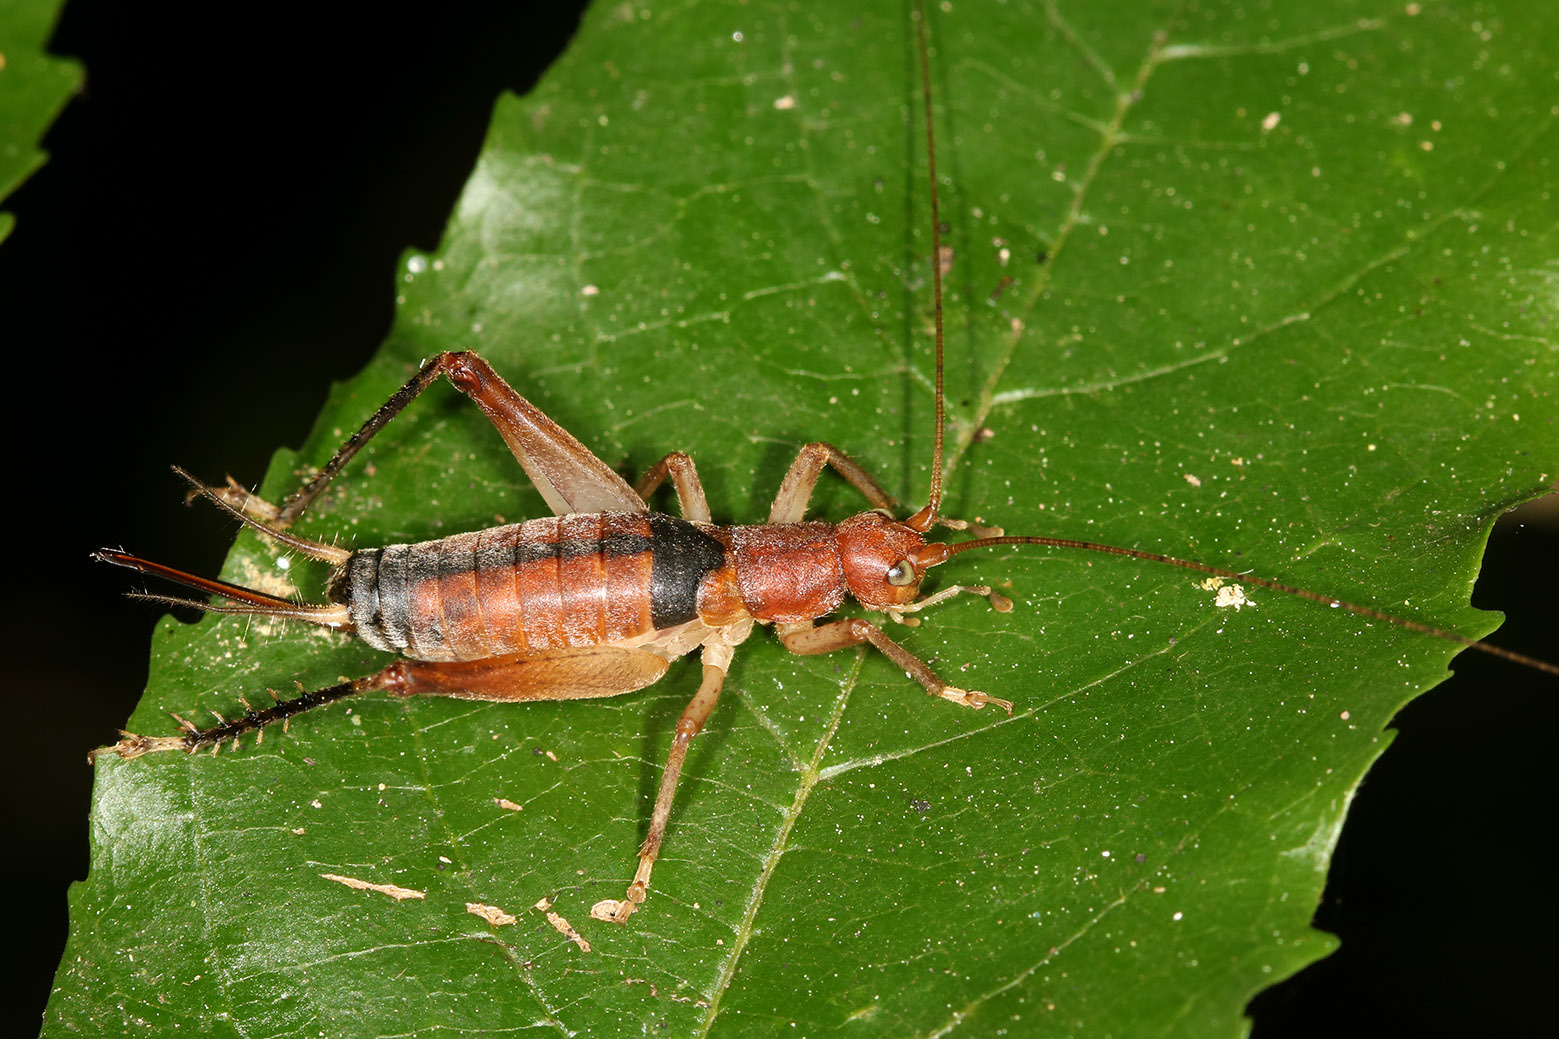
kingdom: Animalia
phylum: Arthropoda
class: Insecta
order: Orthoptera
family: Gryllidae
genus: Neometrypus
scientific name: Neometrypus aculeatus
